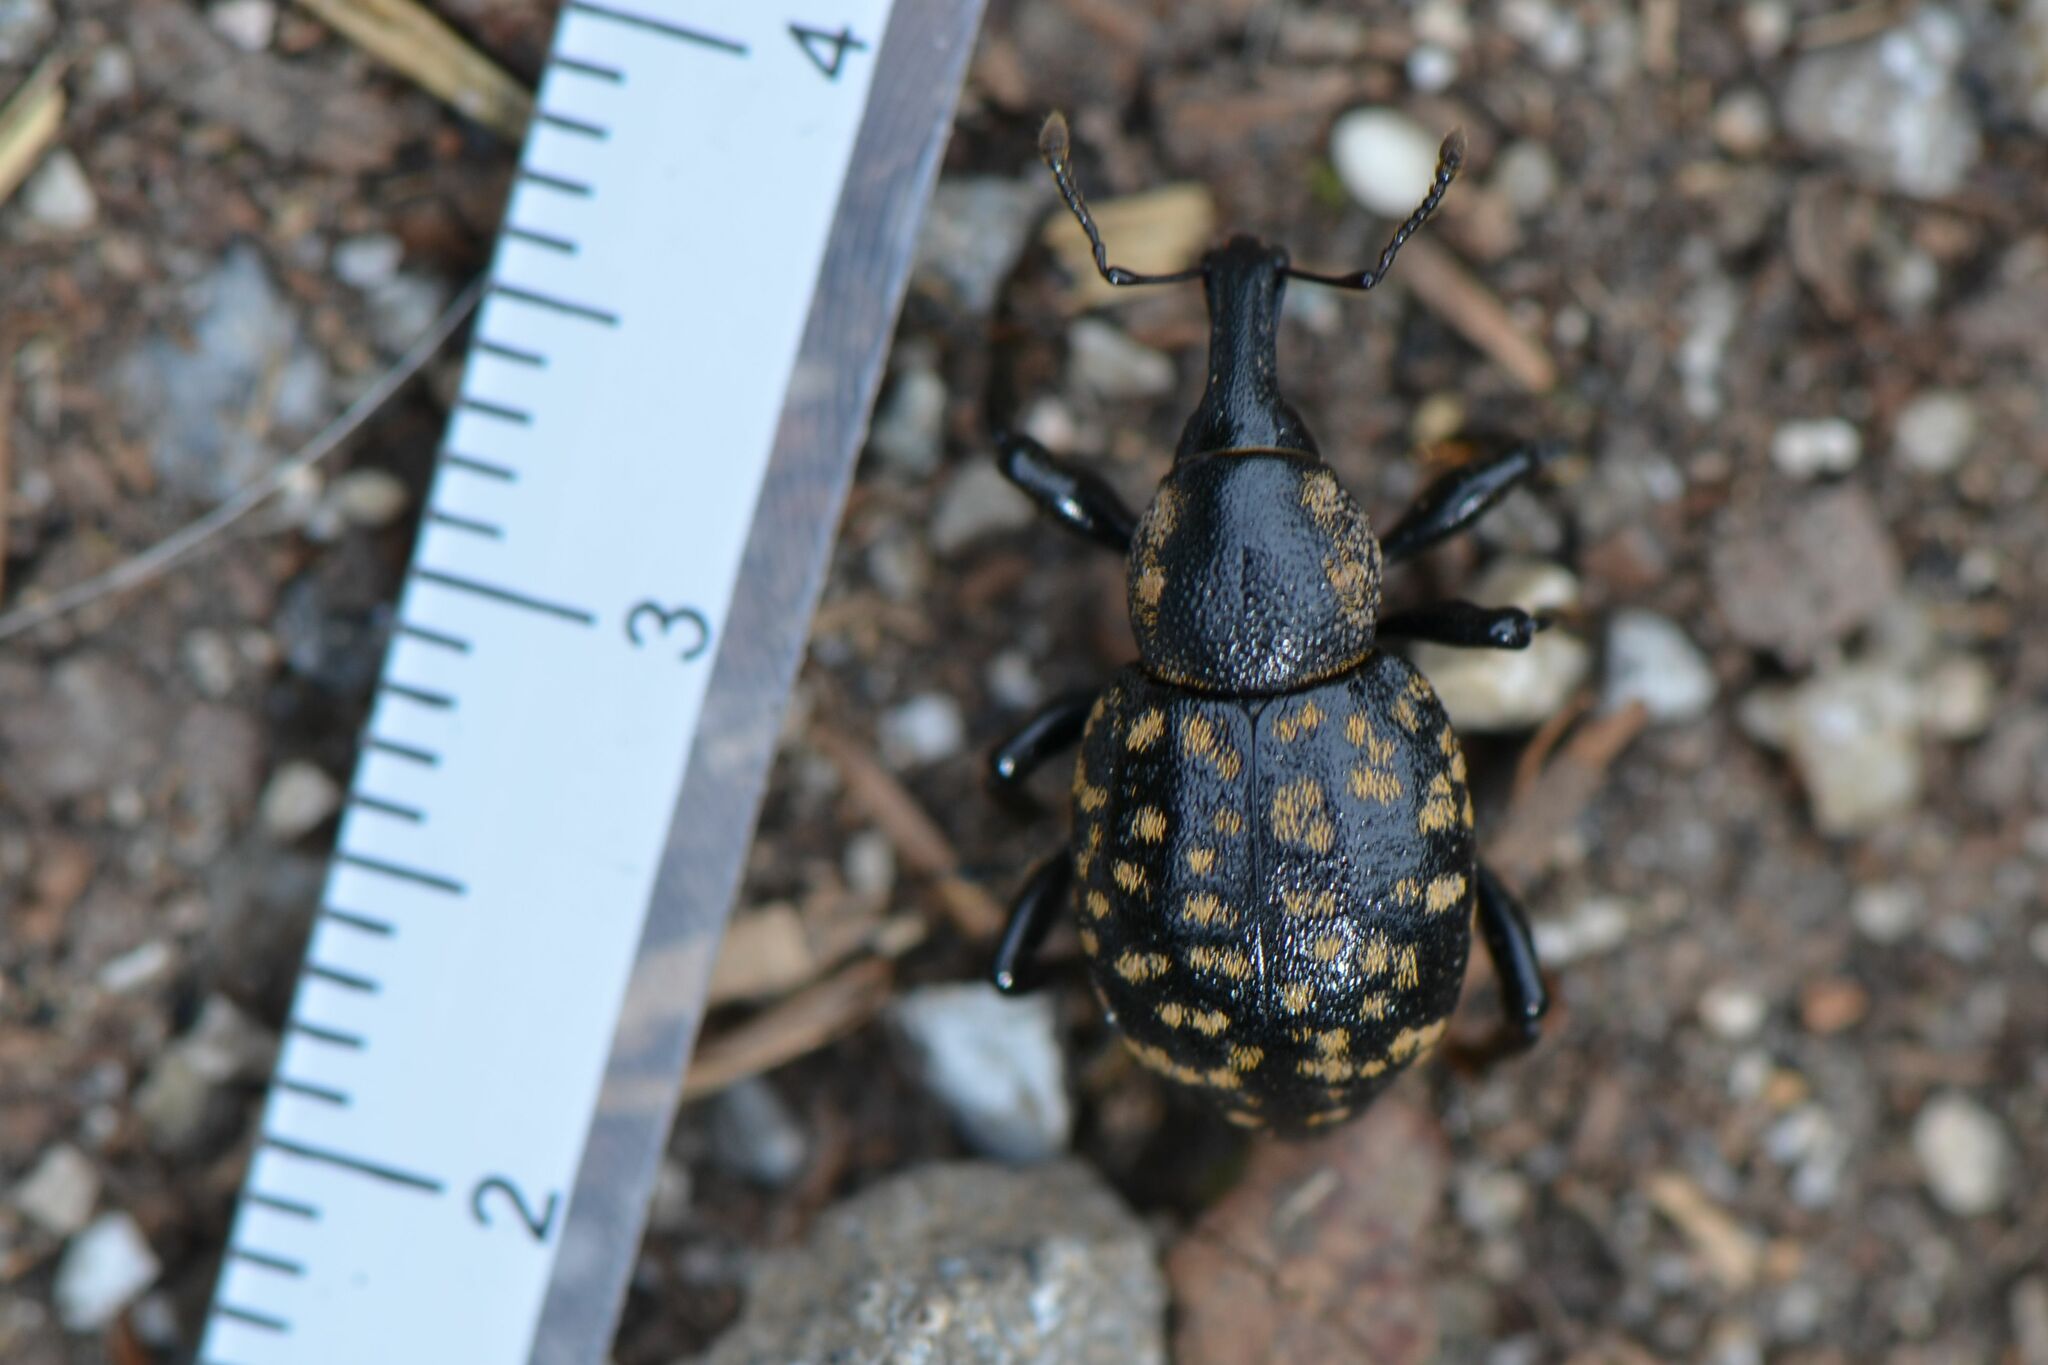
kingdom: Animalia
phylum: Arthropoda
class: Insecta
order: Coleoptera
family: Curculionidae
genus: Liparus
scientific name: Liparus germanus
